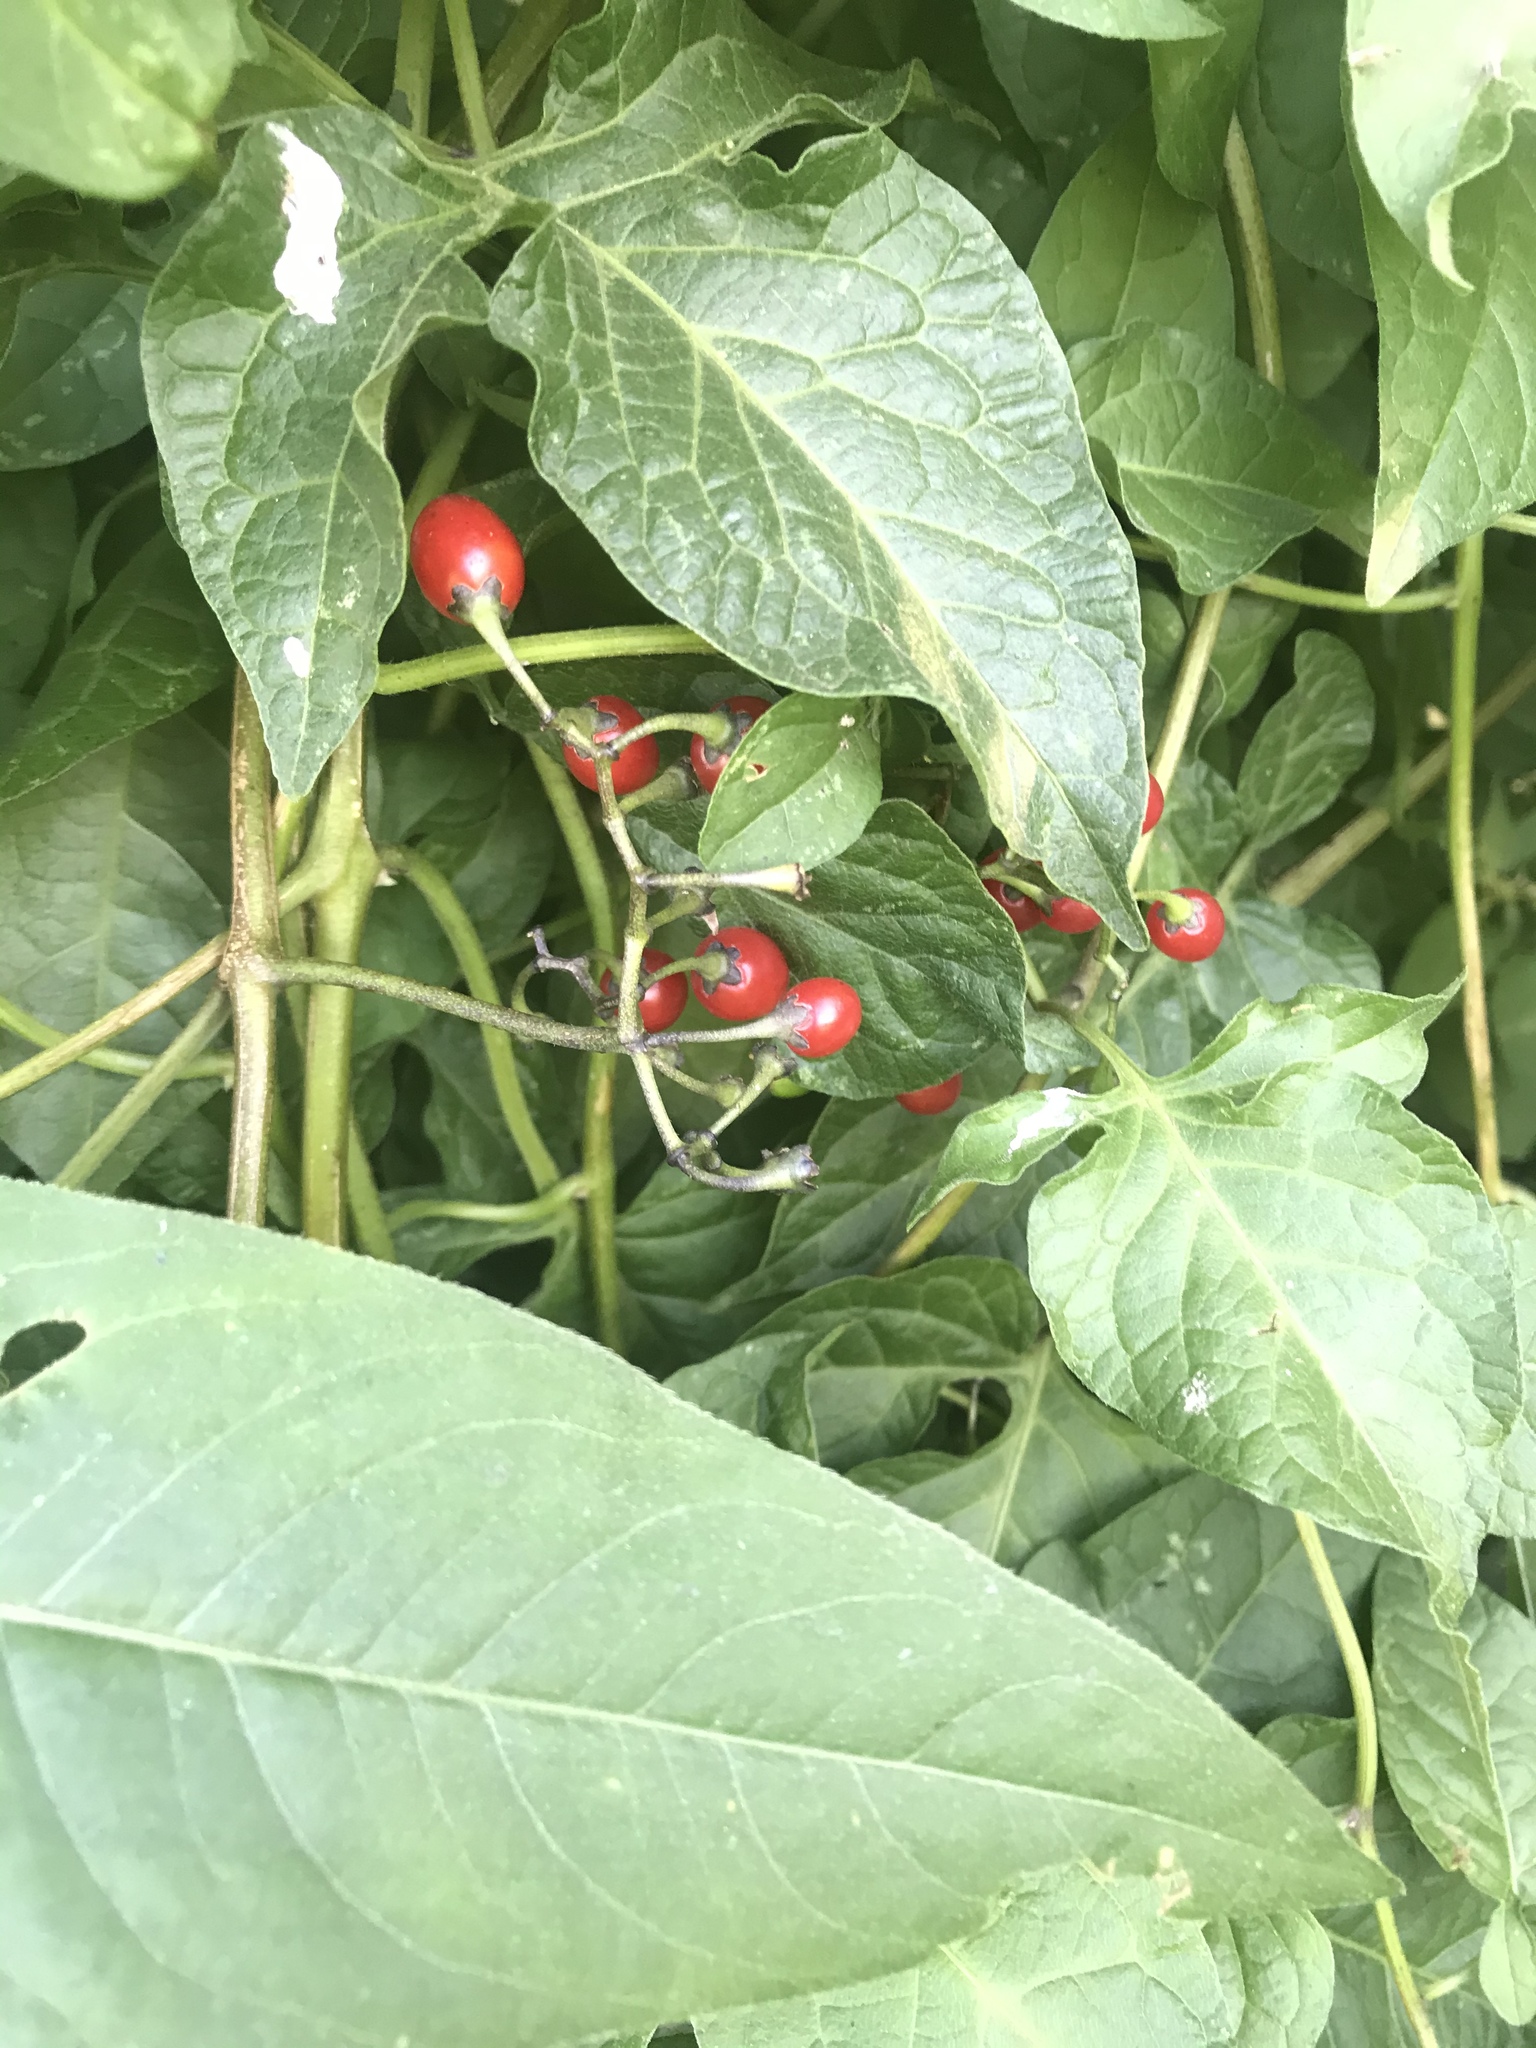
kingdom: Plantae
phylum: Tracheophyta
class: Magnoliopsida
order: Solanales
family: Solanaceae
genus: Solanum
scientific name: Solanum dulcamara
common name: Climbing nightshade
